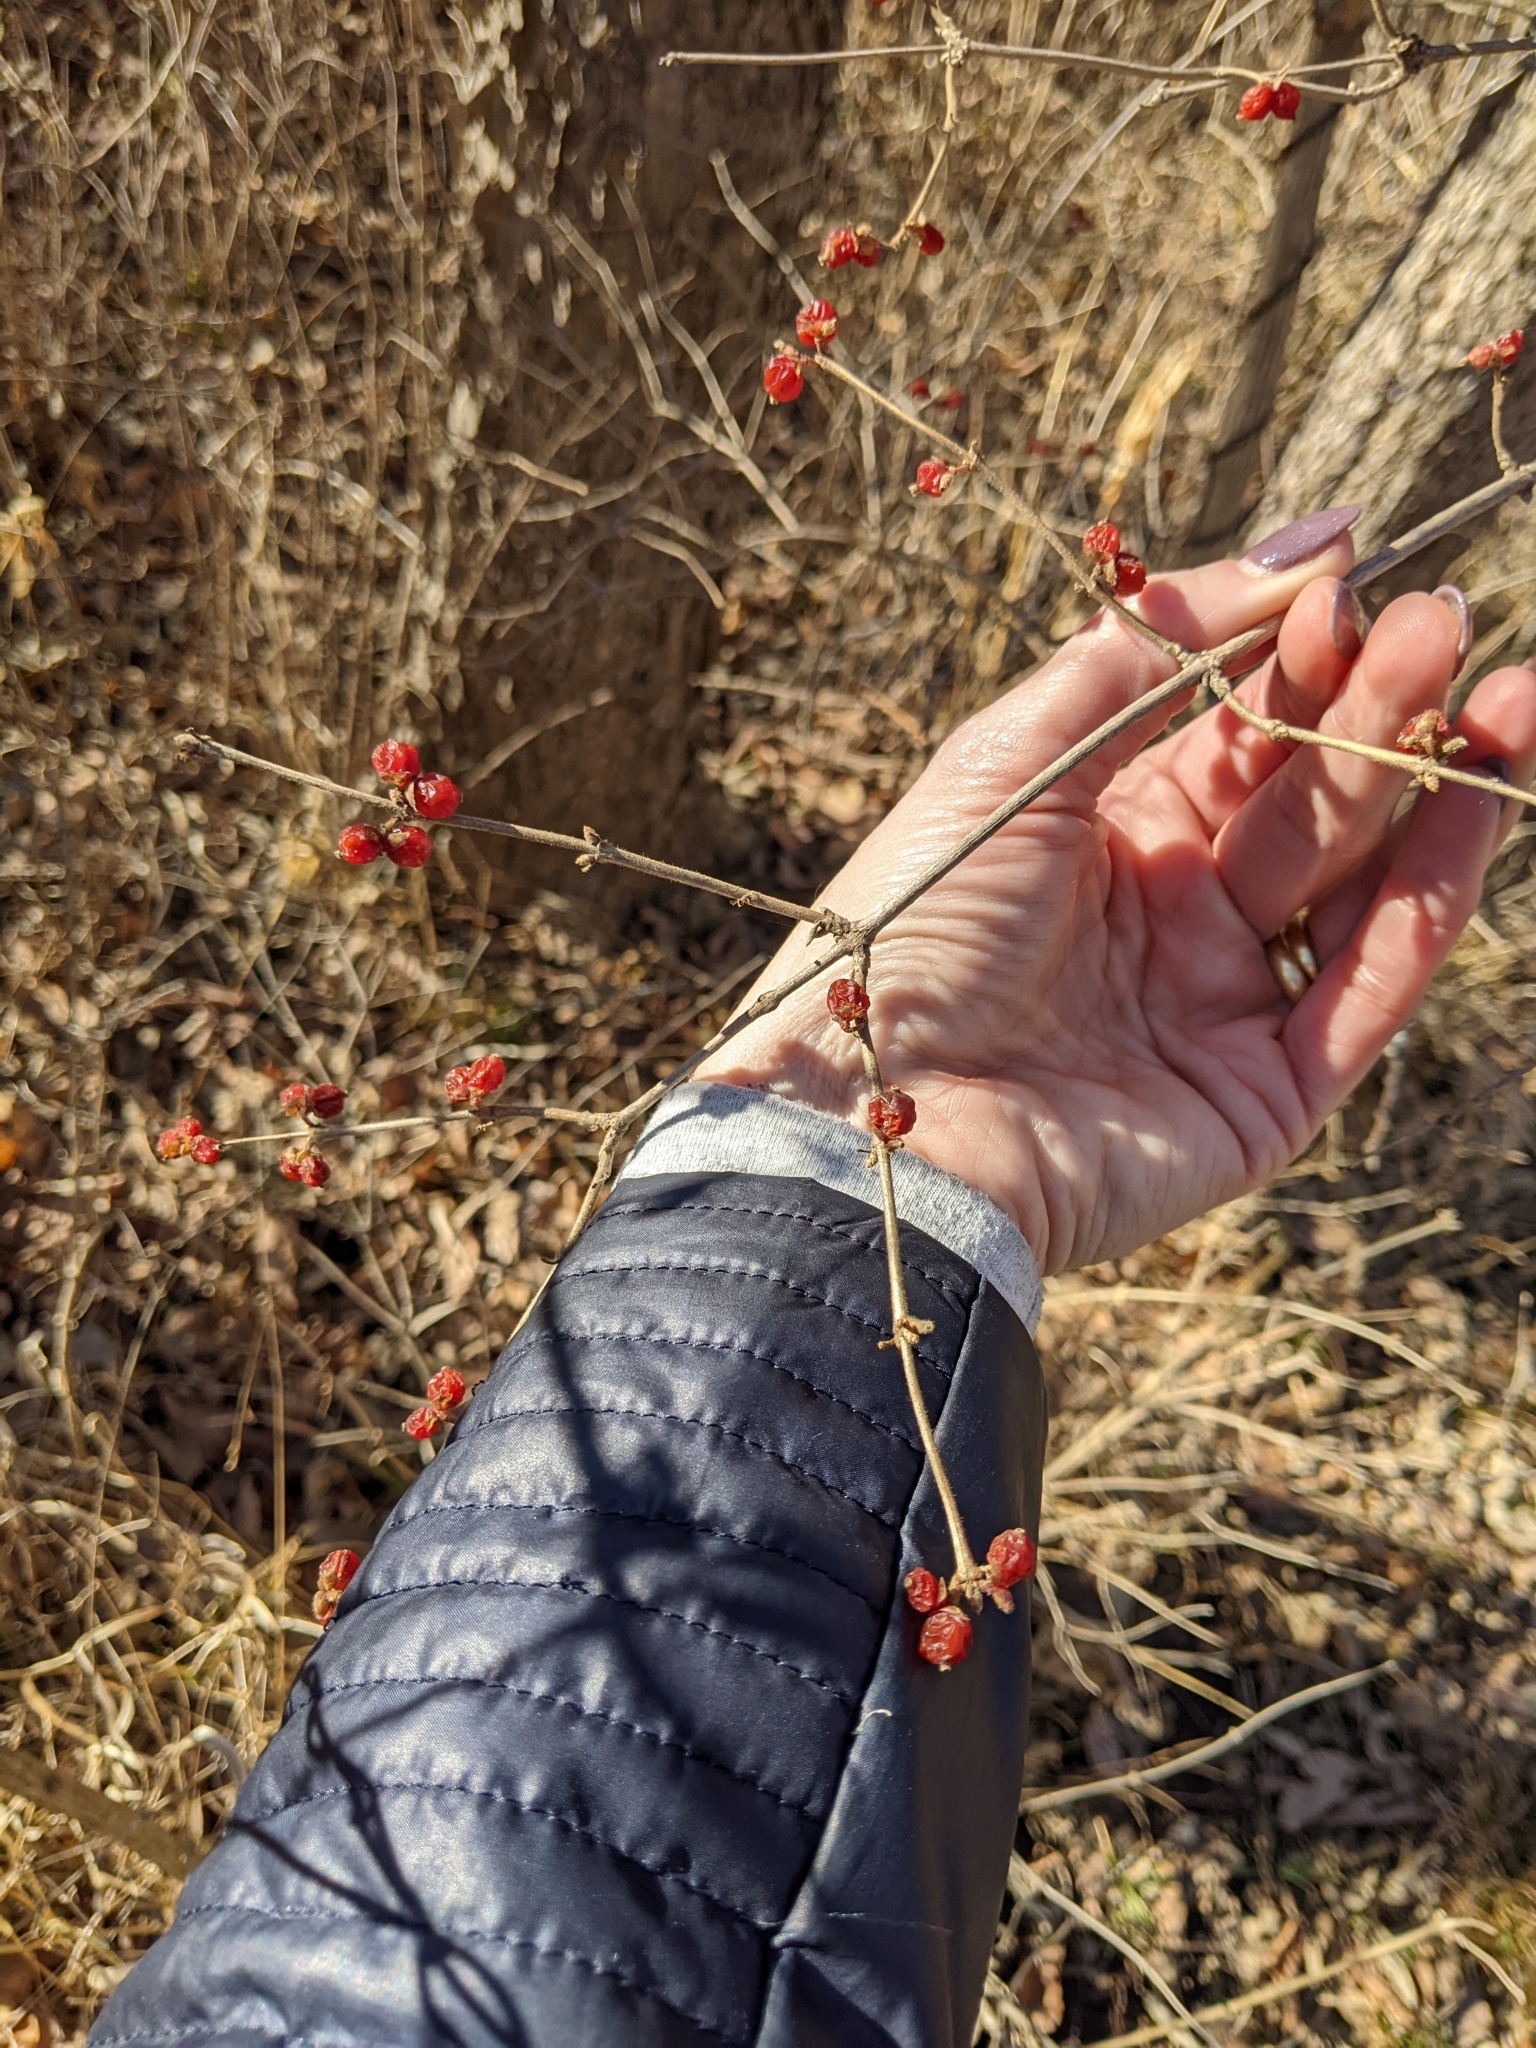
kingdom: Plantae
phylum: Tracheophyta
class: Magnoliopsida
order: Dipsacales
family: Caprifoliaceae
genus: Lonicera
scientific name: Lonicera maackii
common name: Amur honeysuckle
